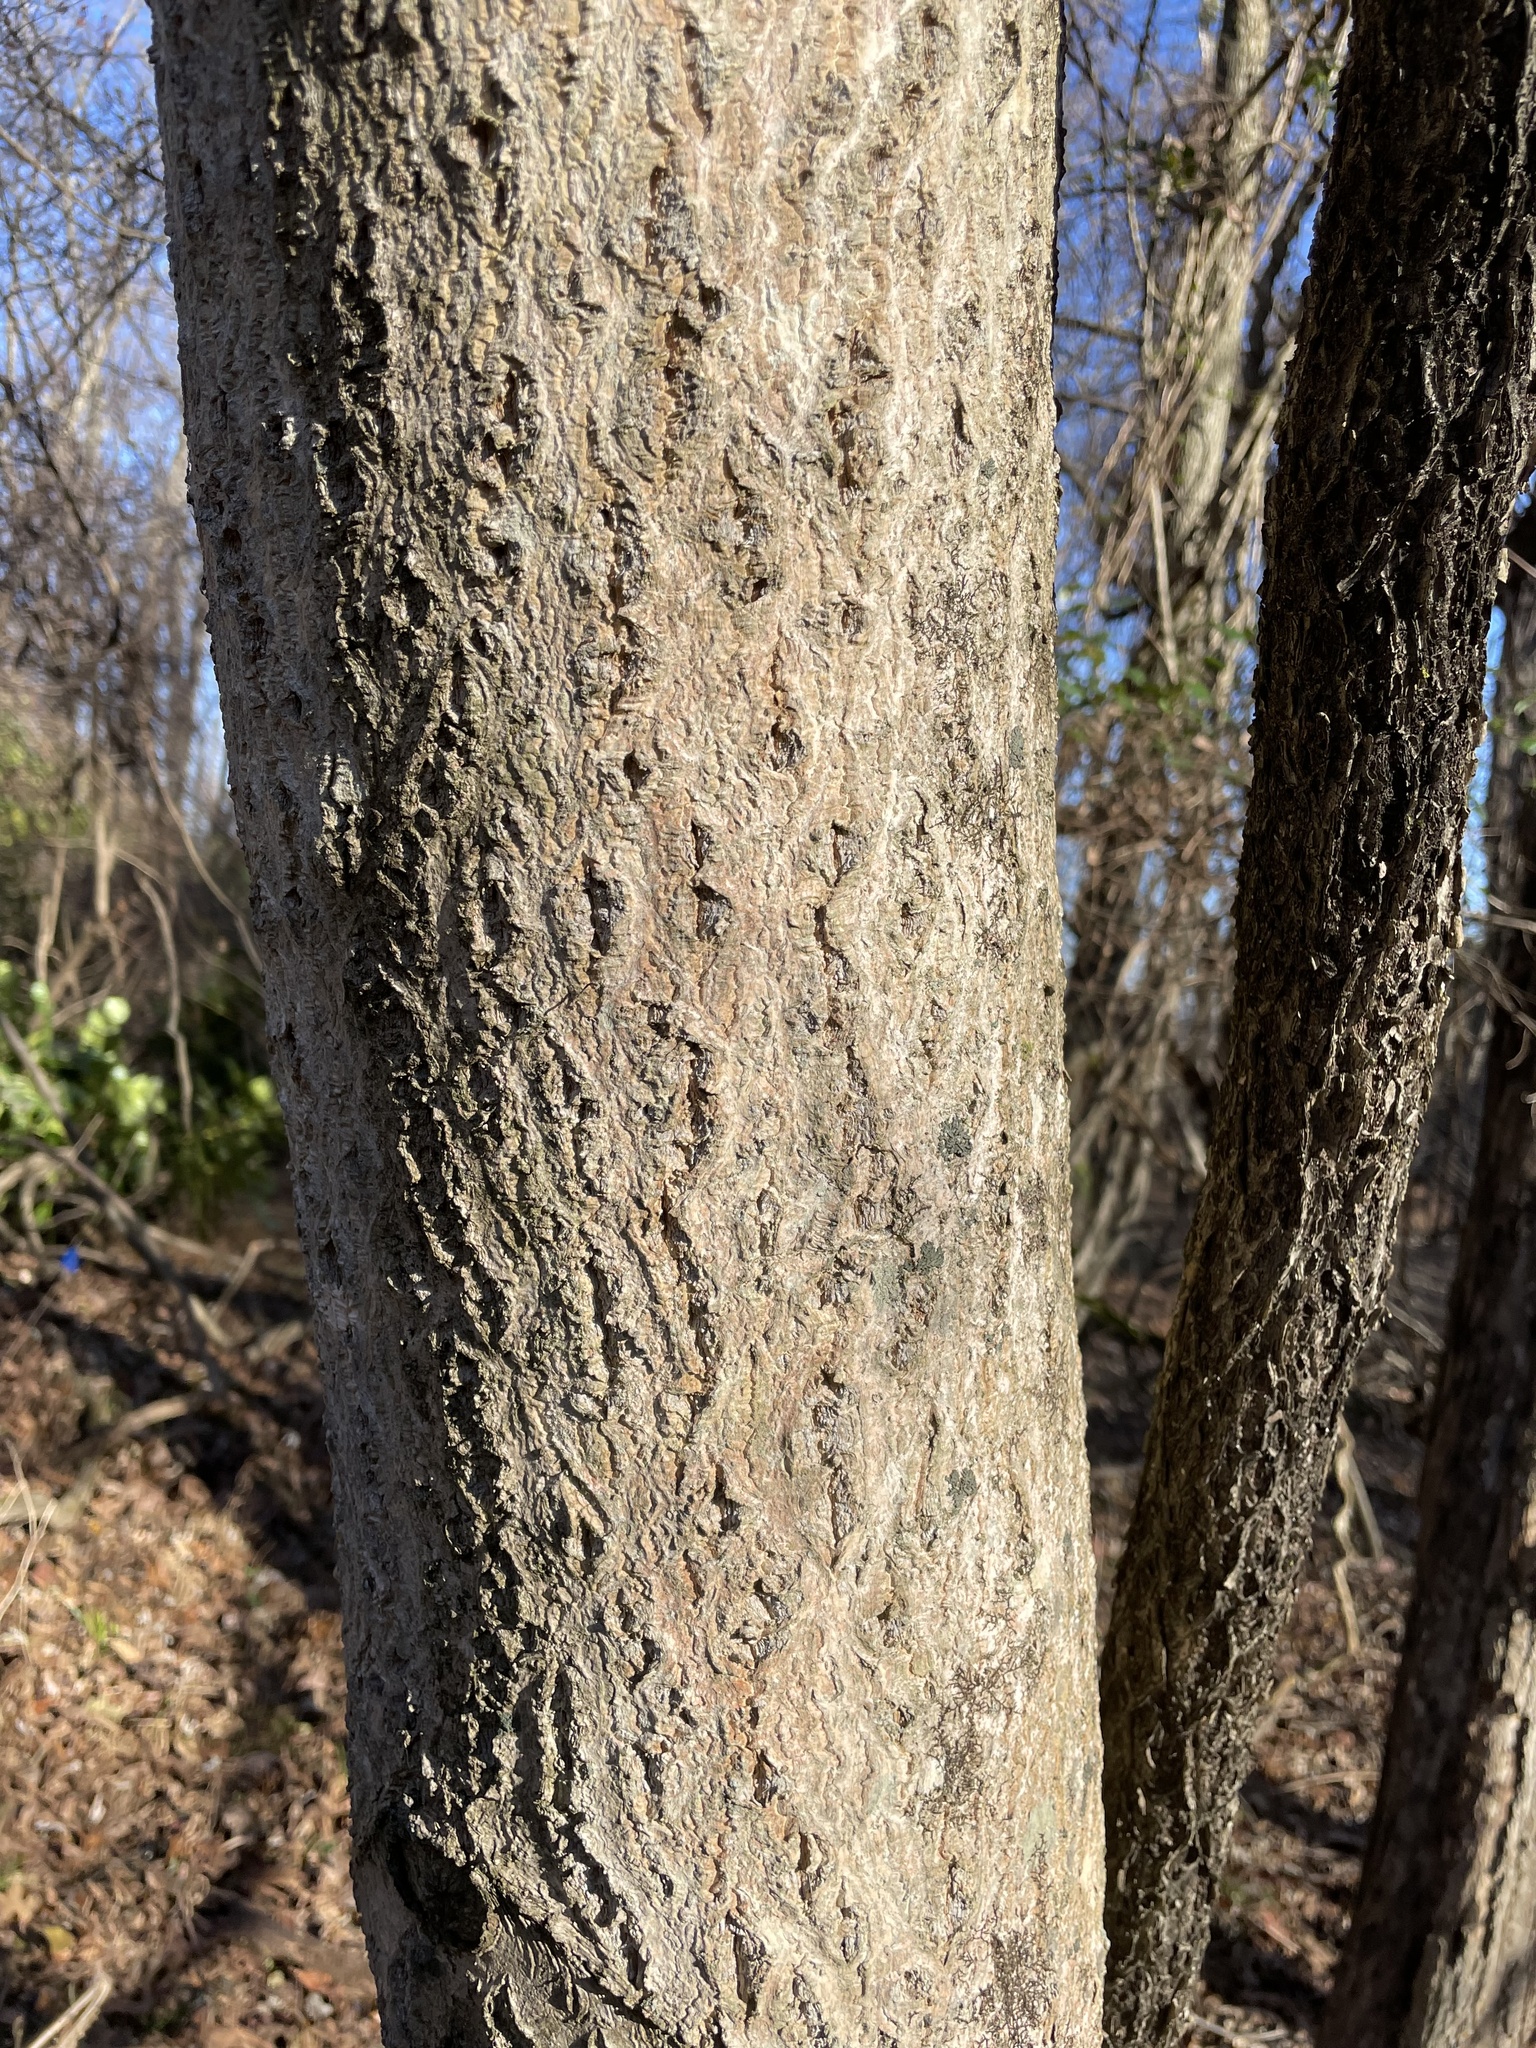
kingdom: Plantae
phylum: Tracheophyta
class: Magnoliopsida
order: Sapindales
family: Rutaceae
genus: Phellodendron
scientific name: Phellodendron amurense
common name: Amur corktree
